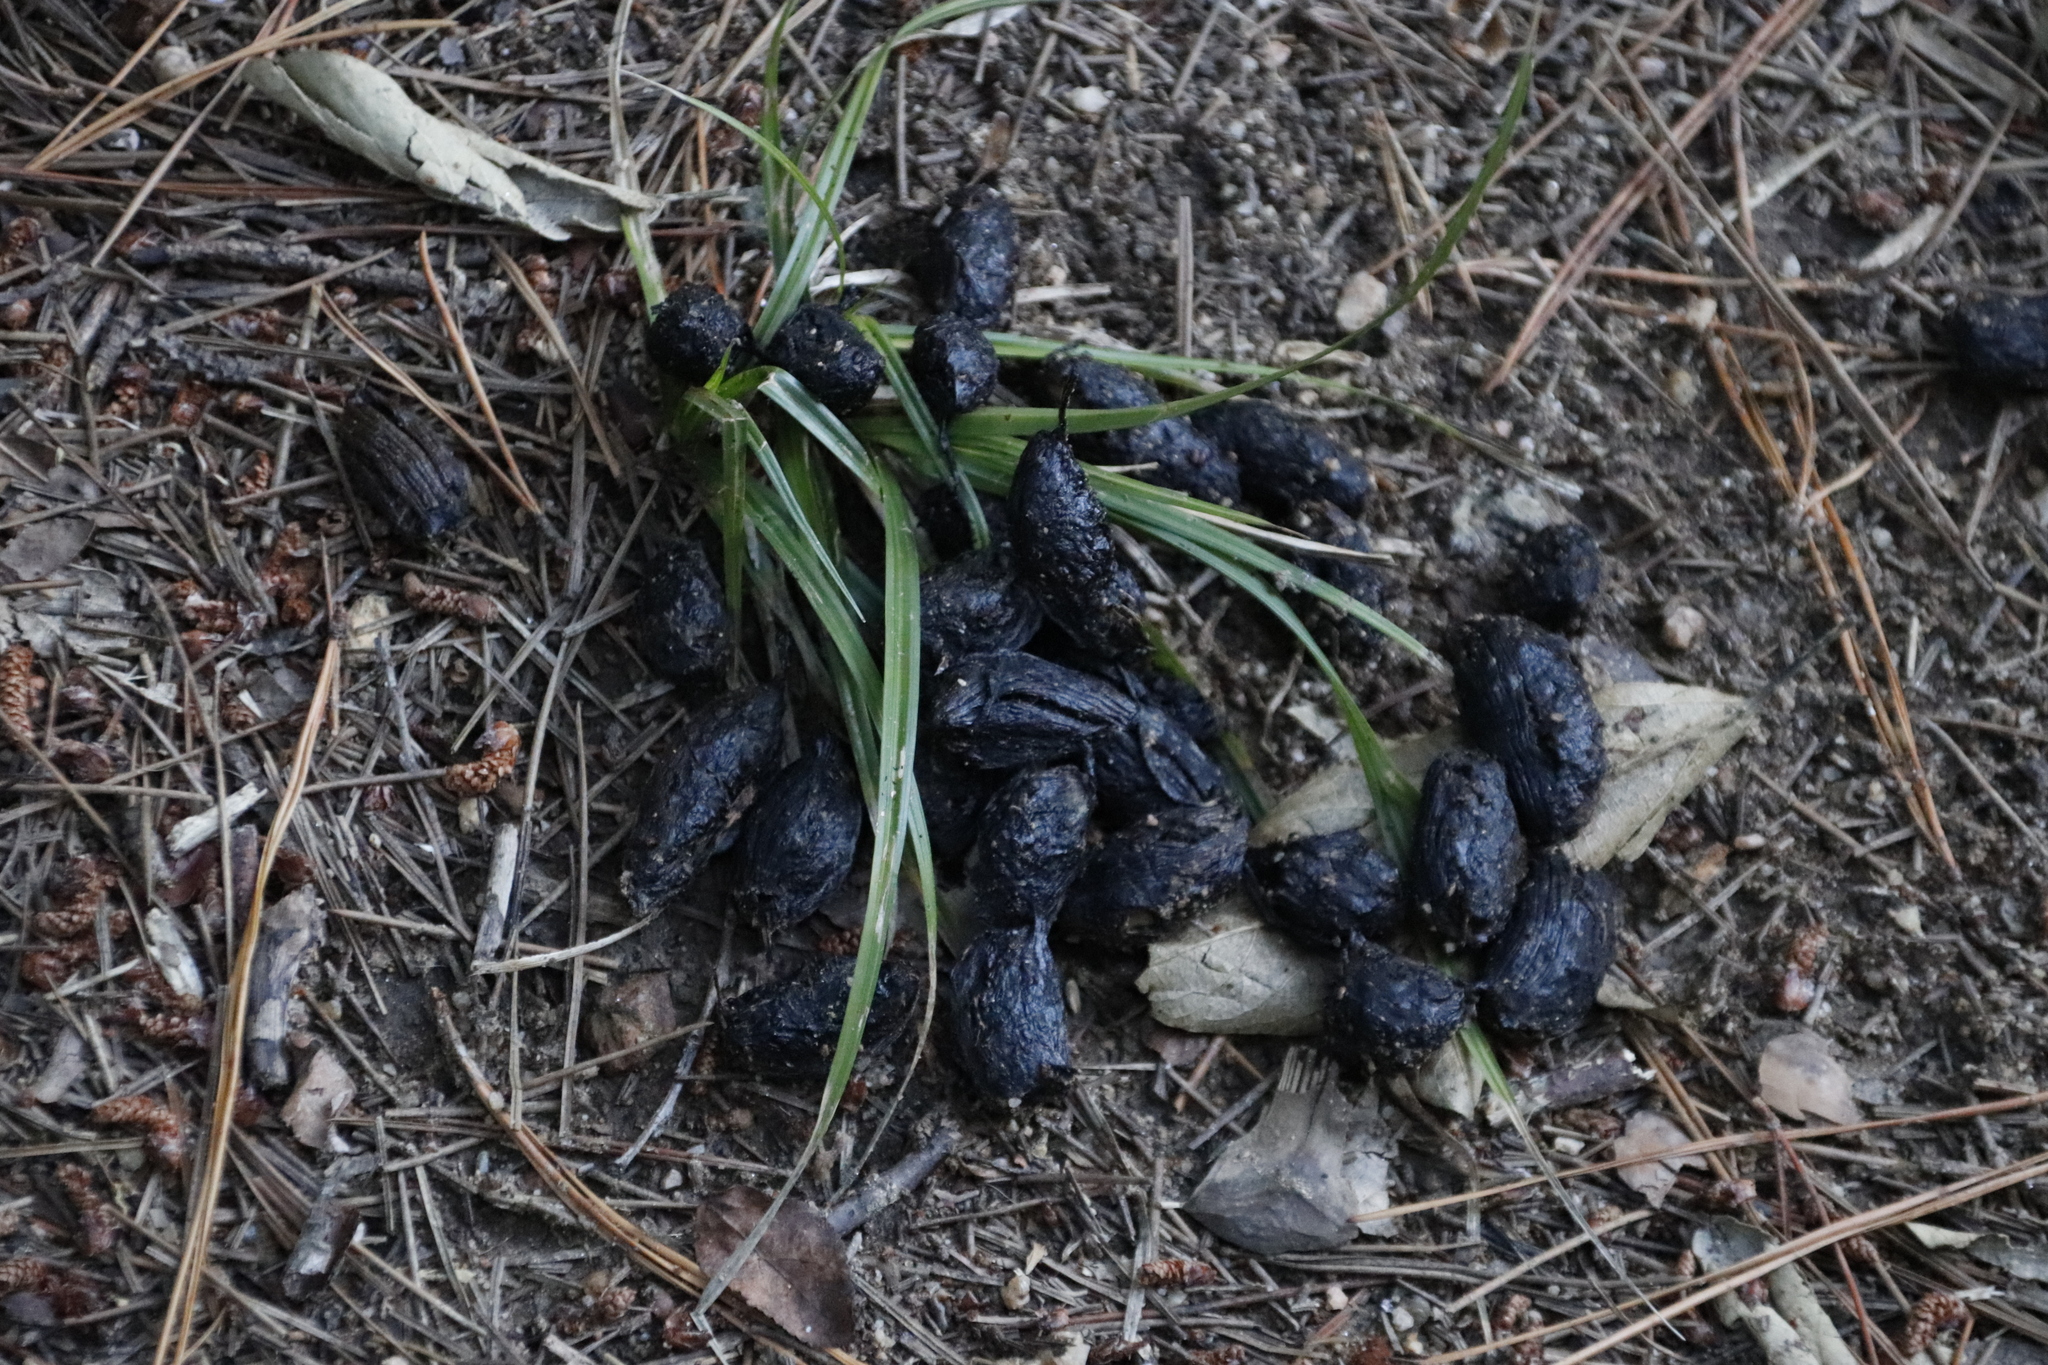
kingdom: Animalia
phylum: Chordata
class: Mammalia
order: Rodentia
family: Hystricidae
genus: Hystrix
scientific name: Hystrix africaeaustralis
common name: Cape porcupine
